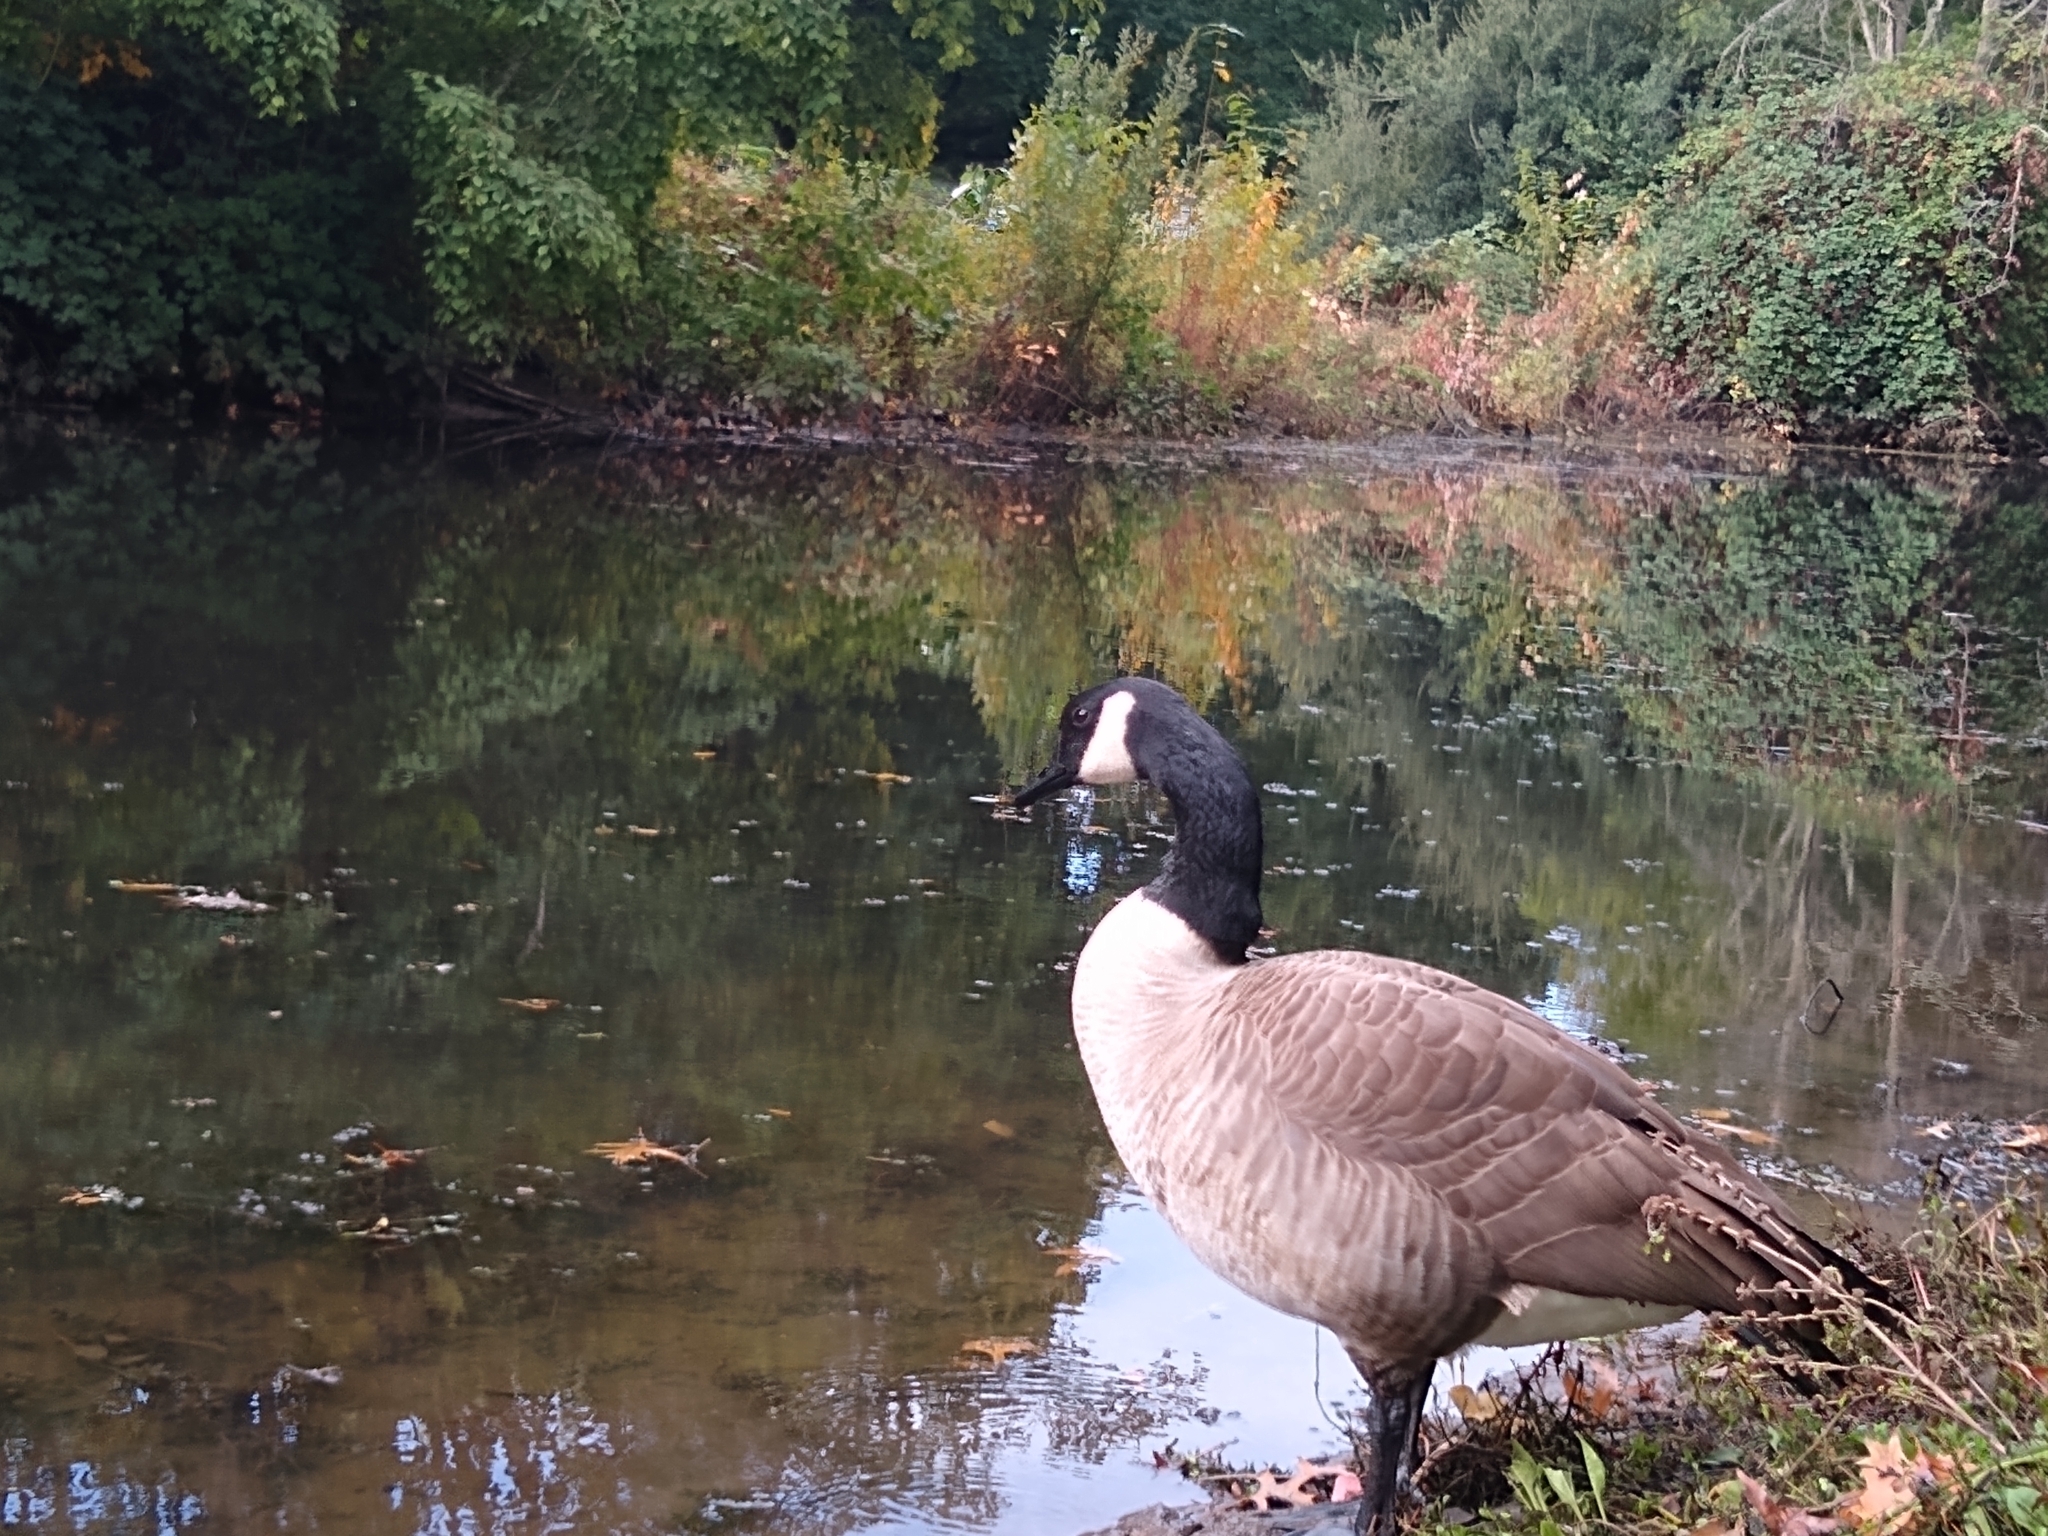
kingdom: Animalia
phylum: Chordata
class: Aves
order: Anseriformes
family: Anatidae
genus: Branta
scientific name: Branta canadensis
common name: Canada goose
